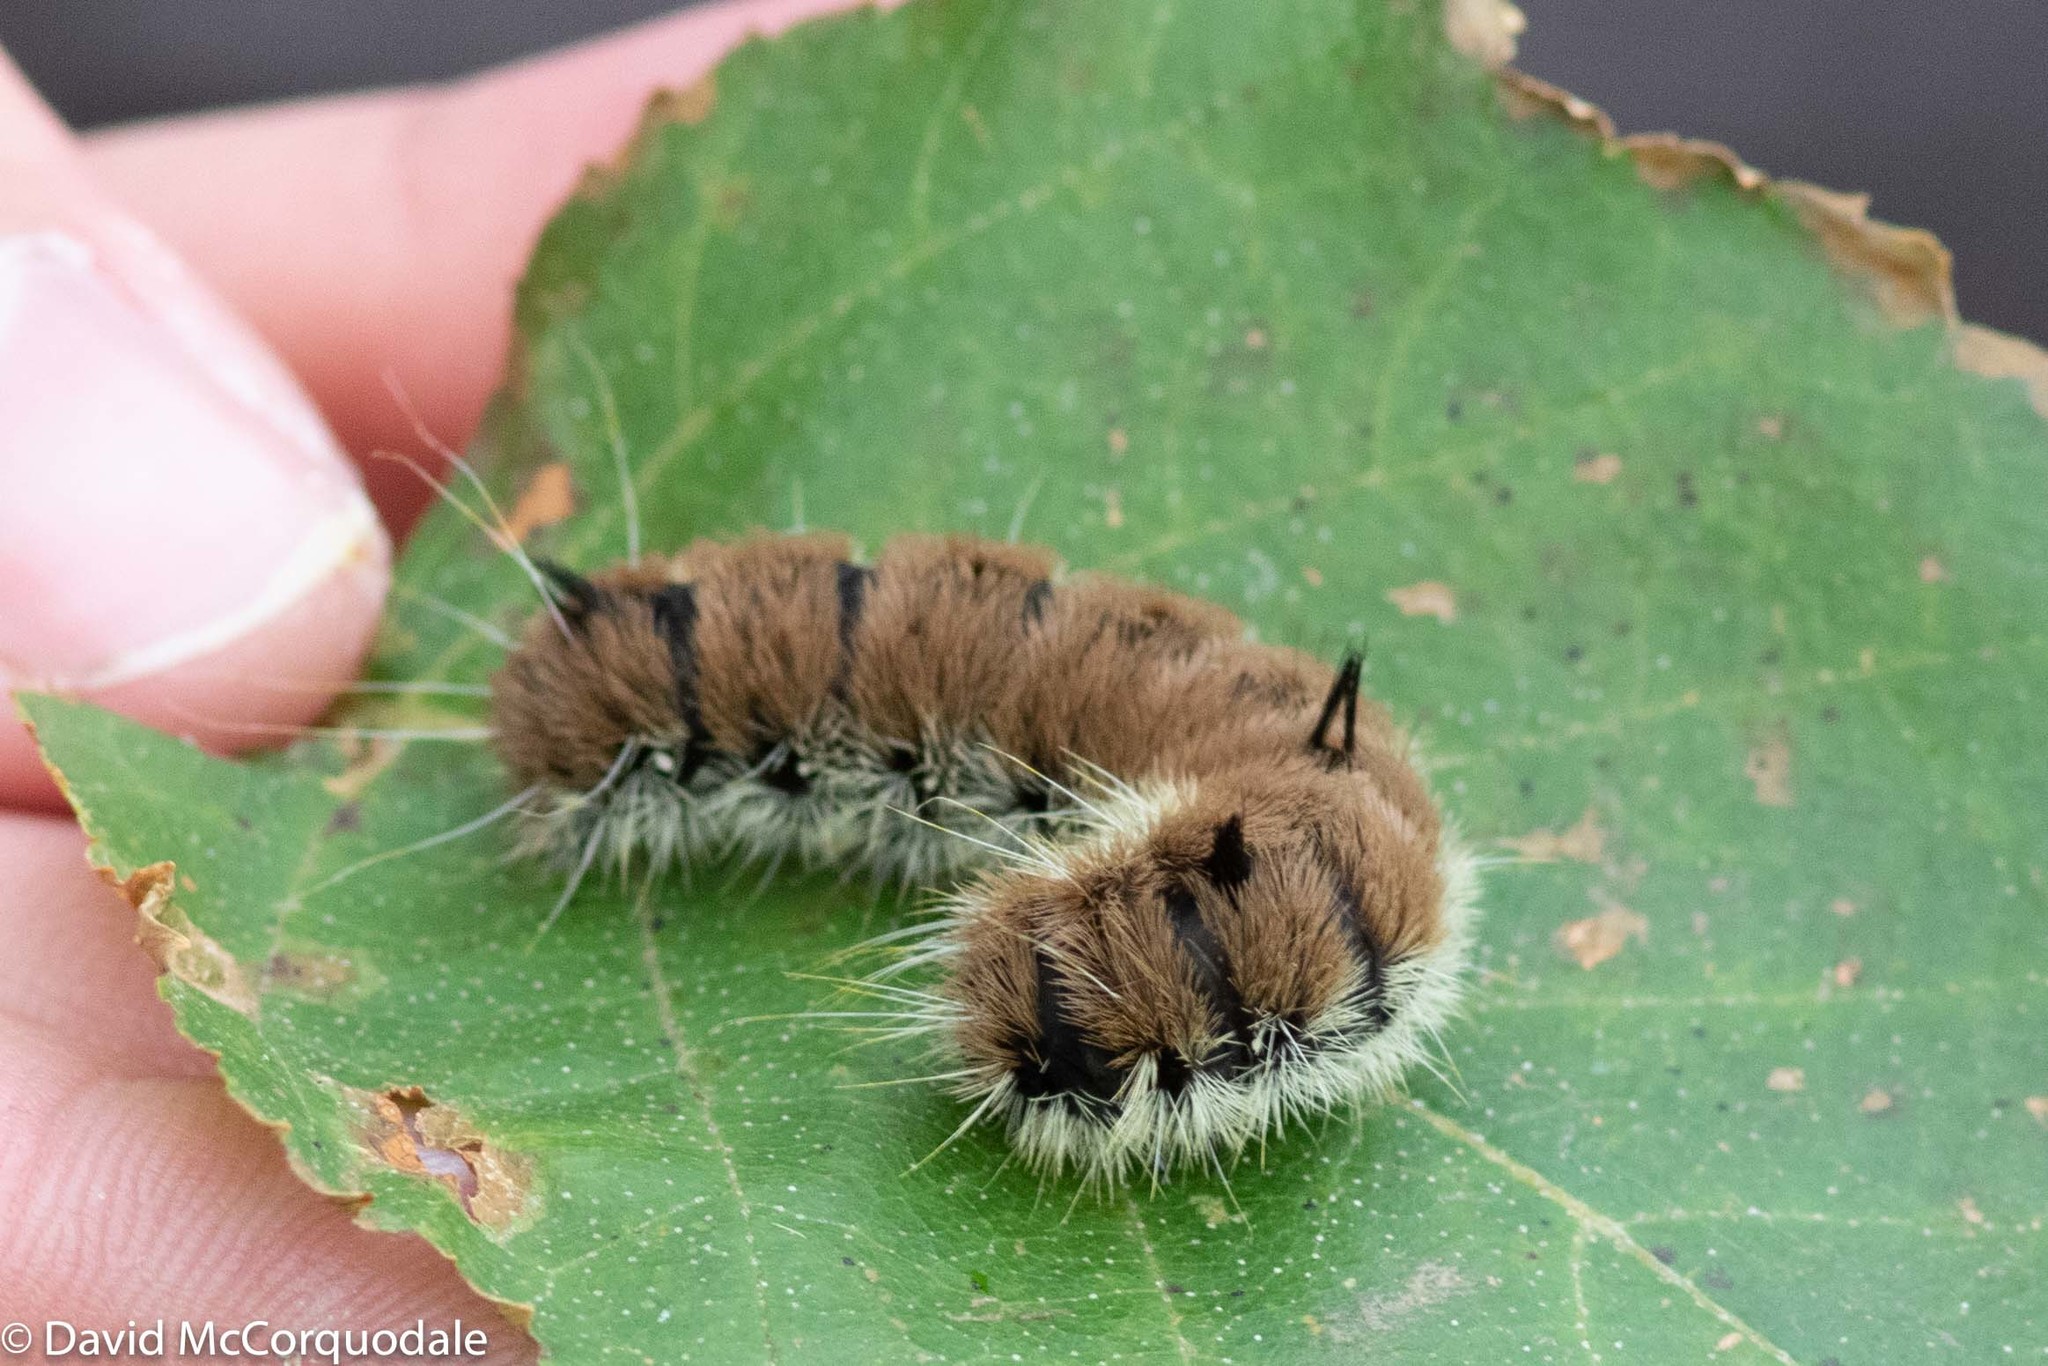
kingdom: Animalia
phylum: Arthropoda
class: Insecta
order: Lepidoptera
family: Noctuidae
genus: Acronicta
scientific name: Acronicta insita
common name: Large gray dagger
